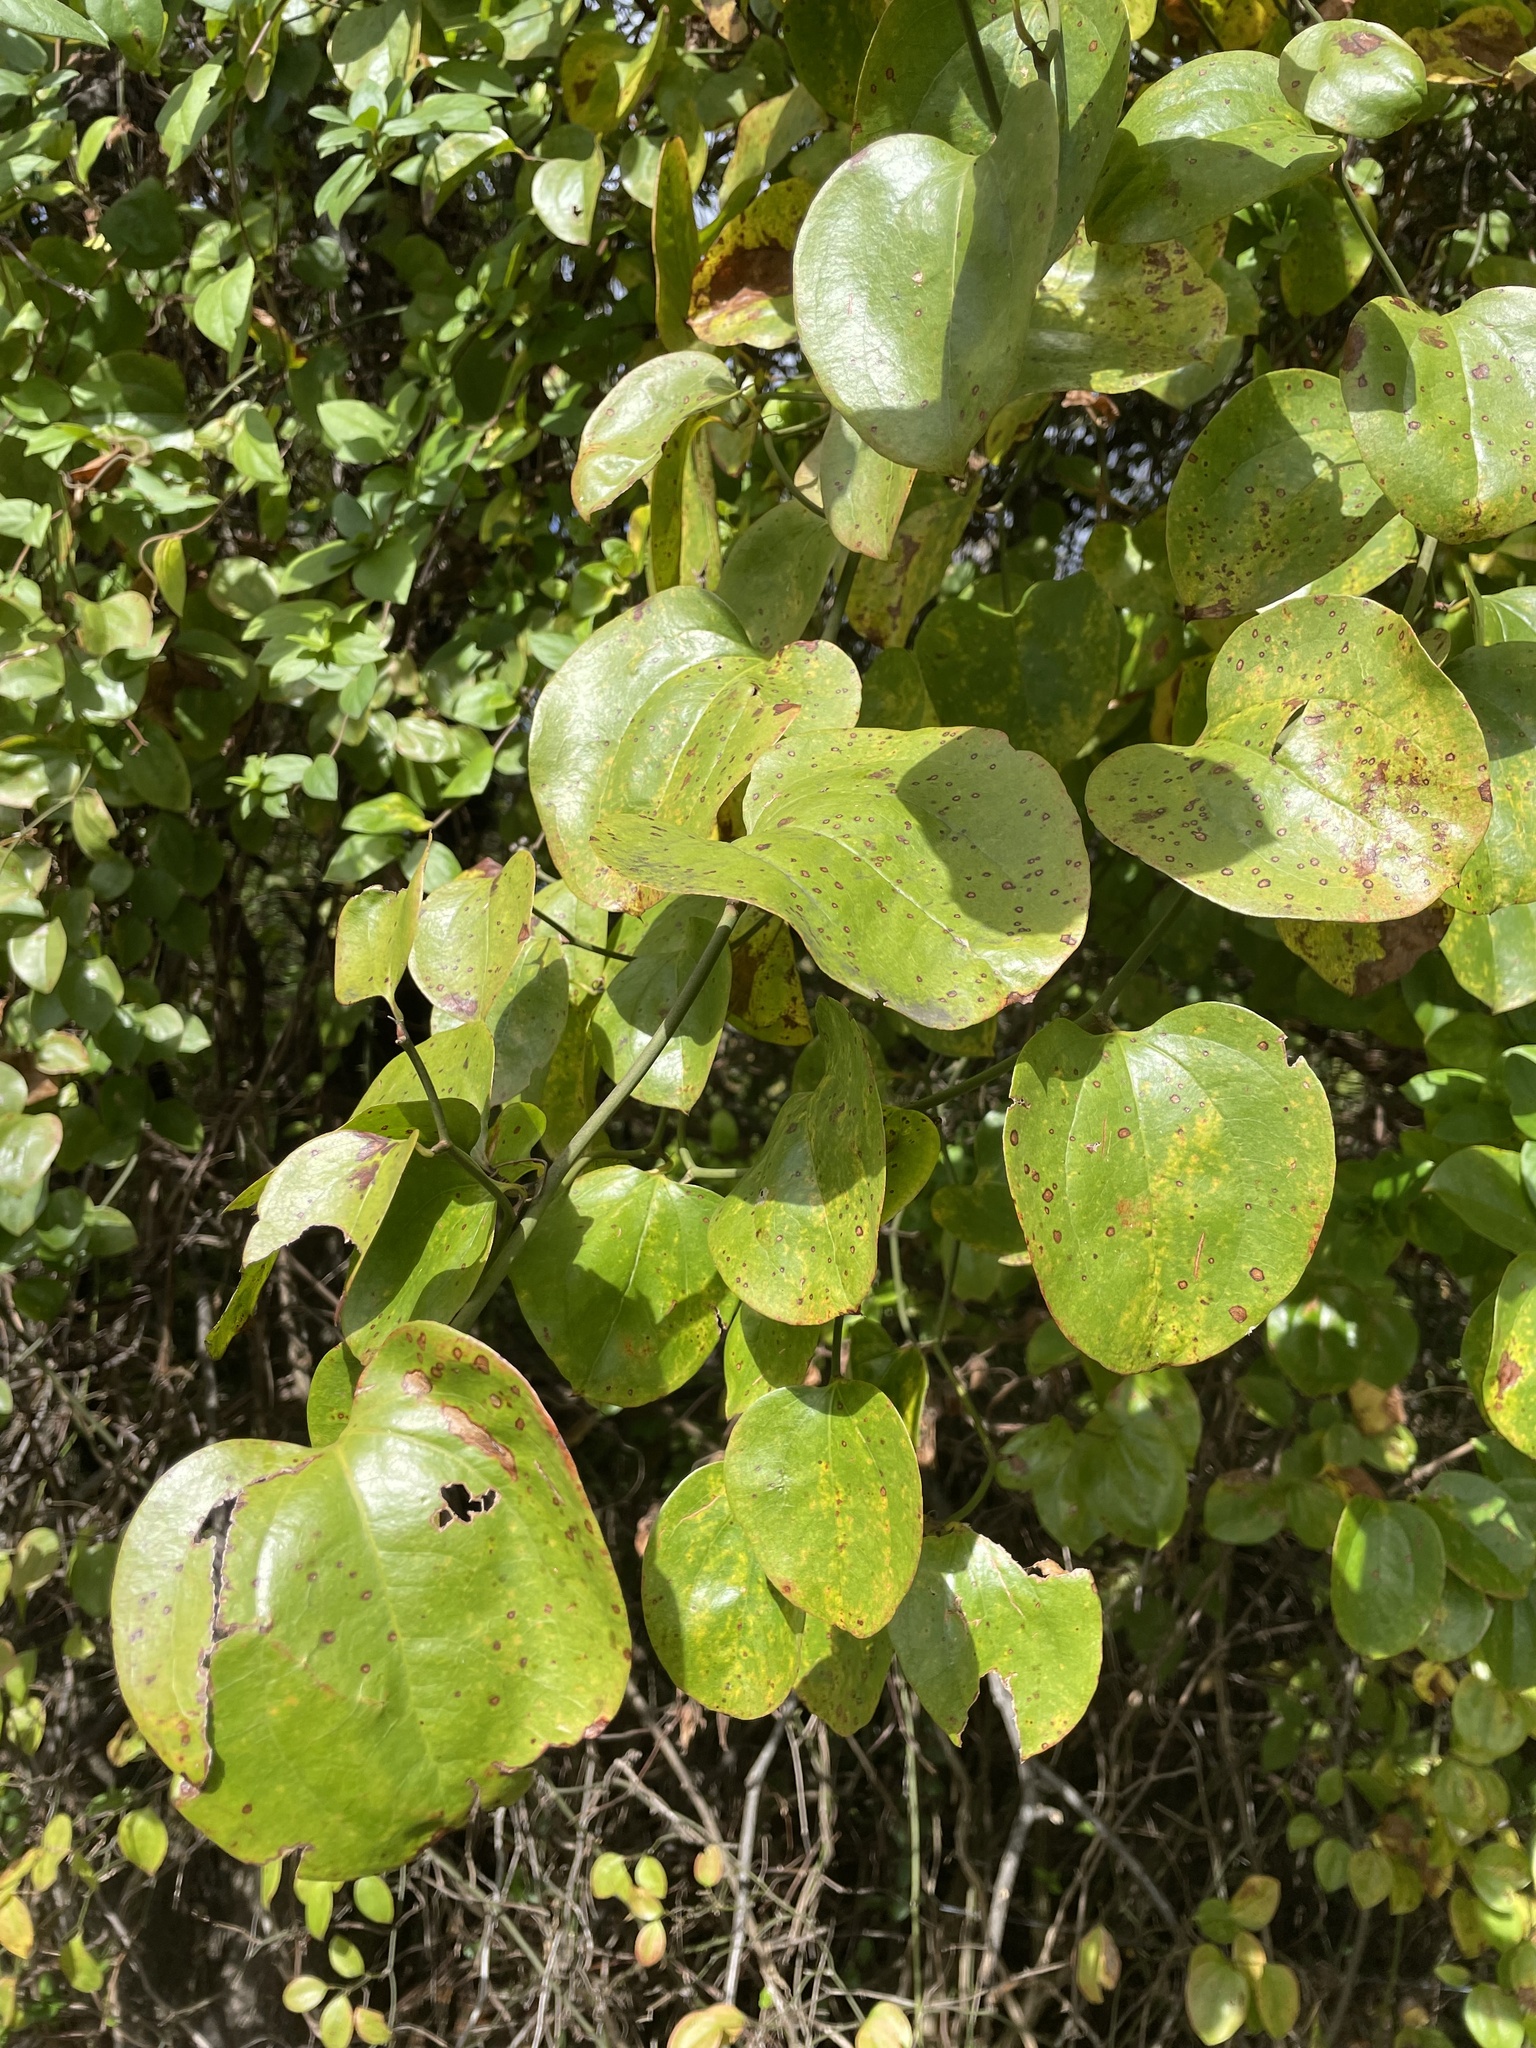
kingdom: Plantae
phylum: Tracheophyta
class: Liliopsida
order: Liliales
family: Smilacaceae
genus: Smilax
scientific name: Smilax rotundifolia
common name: Bullbriar
